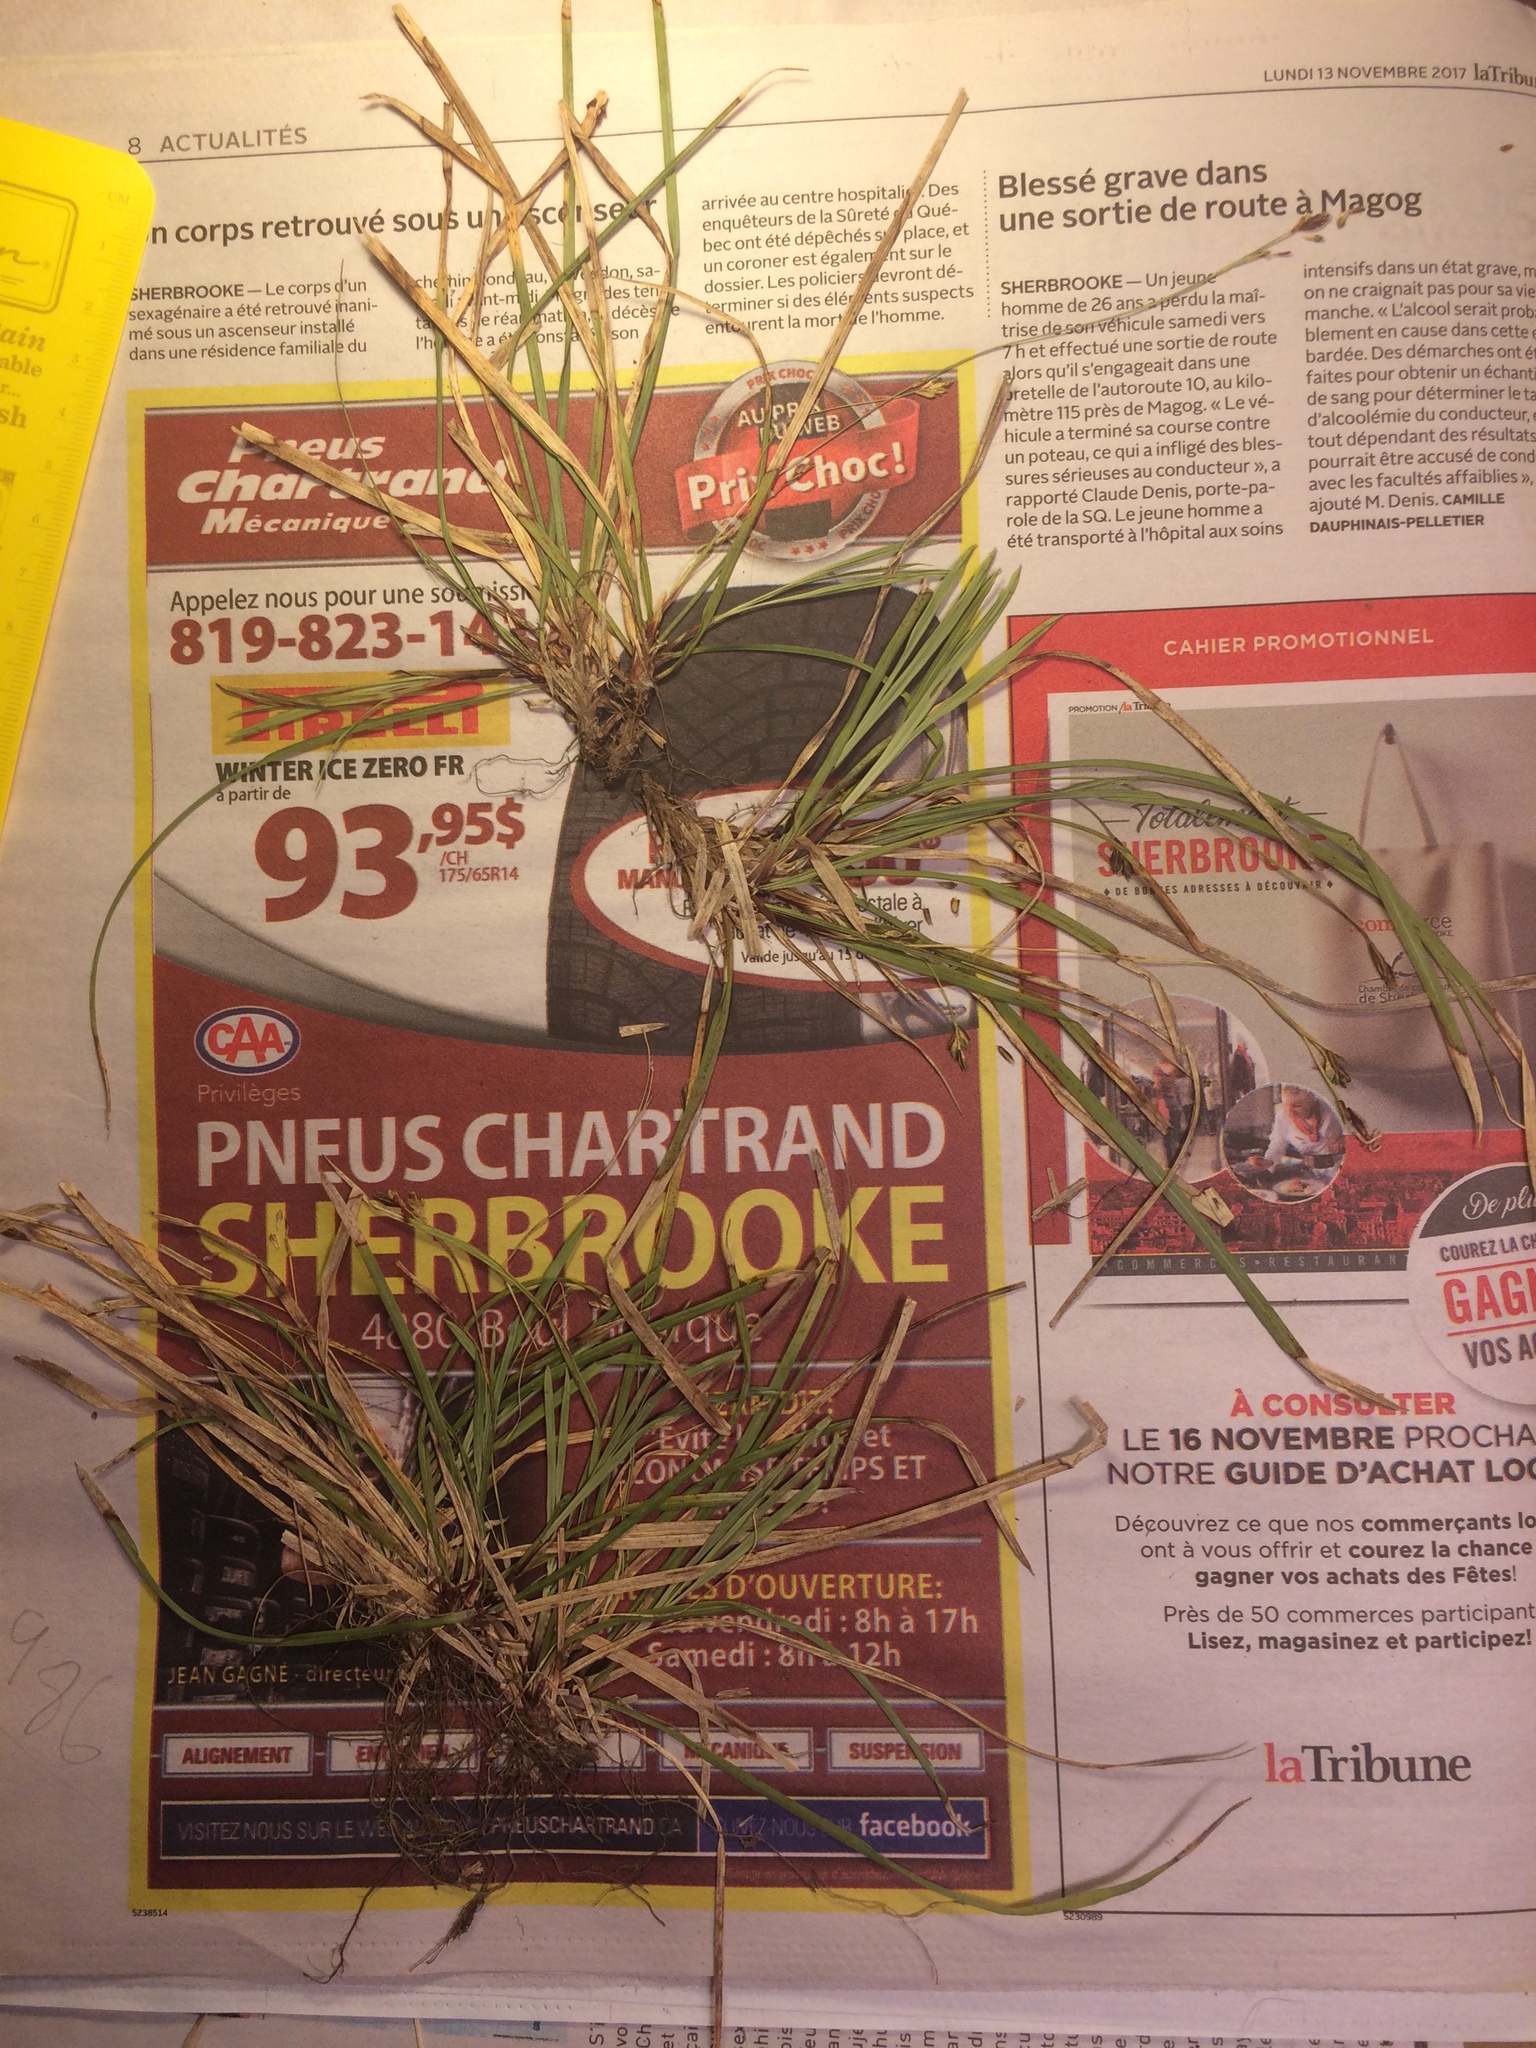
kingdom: Plantae
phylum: Tracheophyta
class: Liliopsida
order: Poales
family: Cyperaceae
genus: Carex
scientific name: Carex pedunculata
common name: Pedunculate sedge
